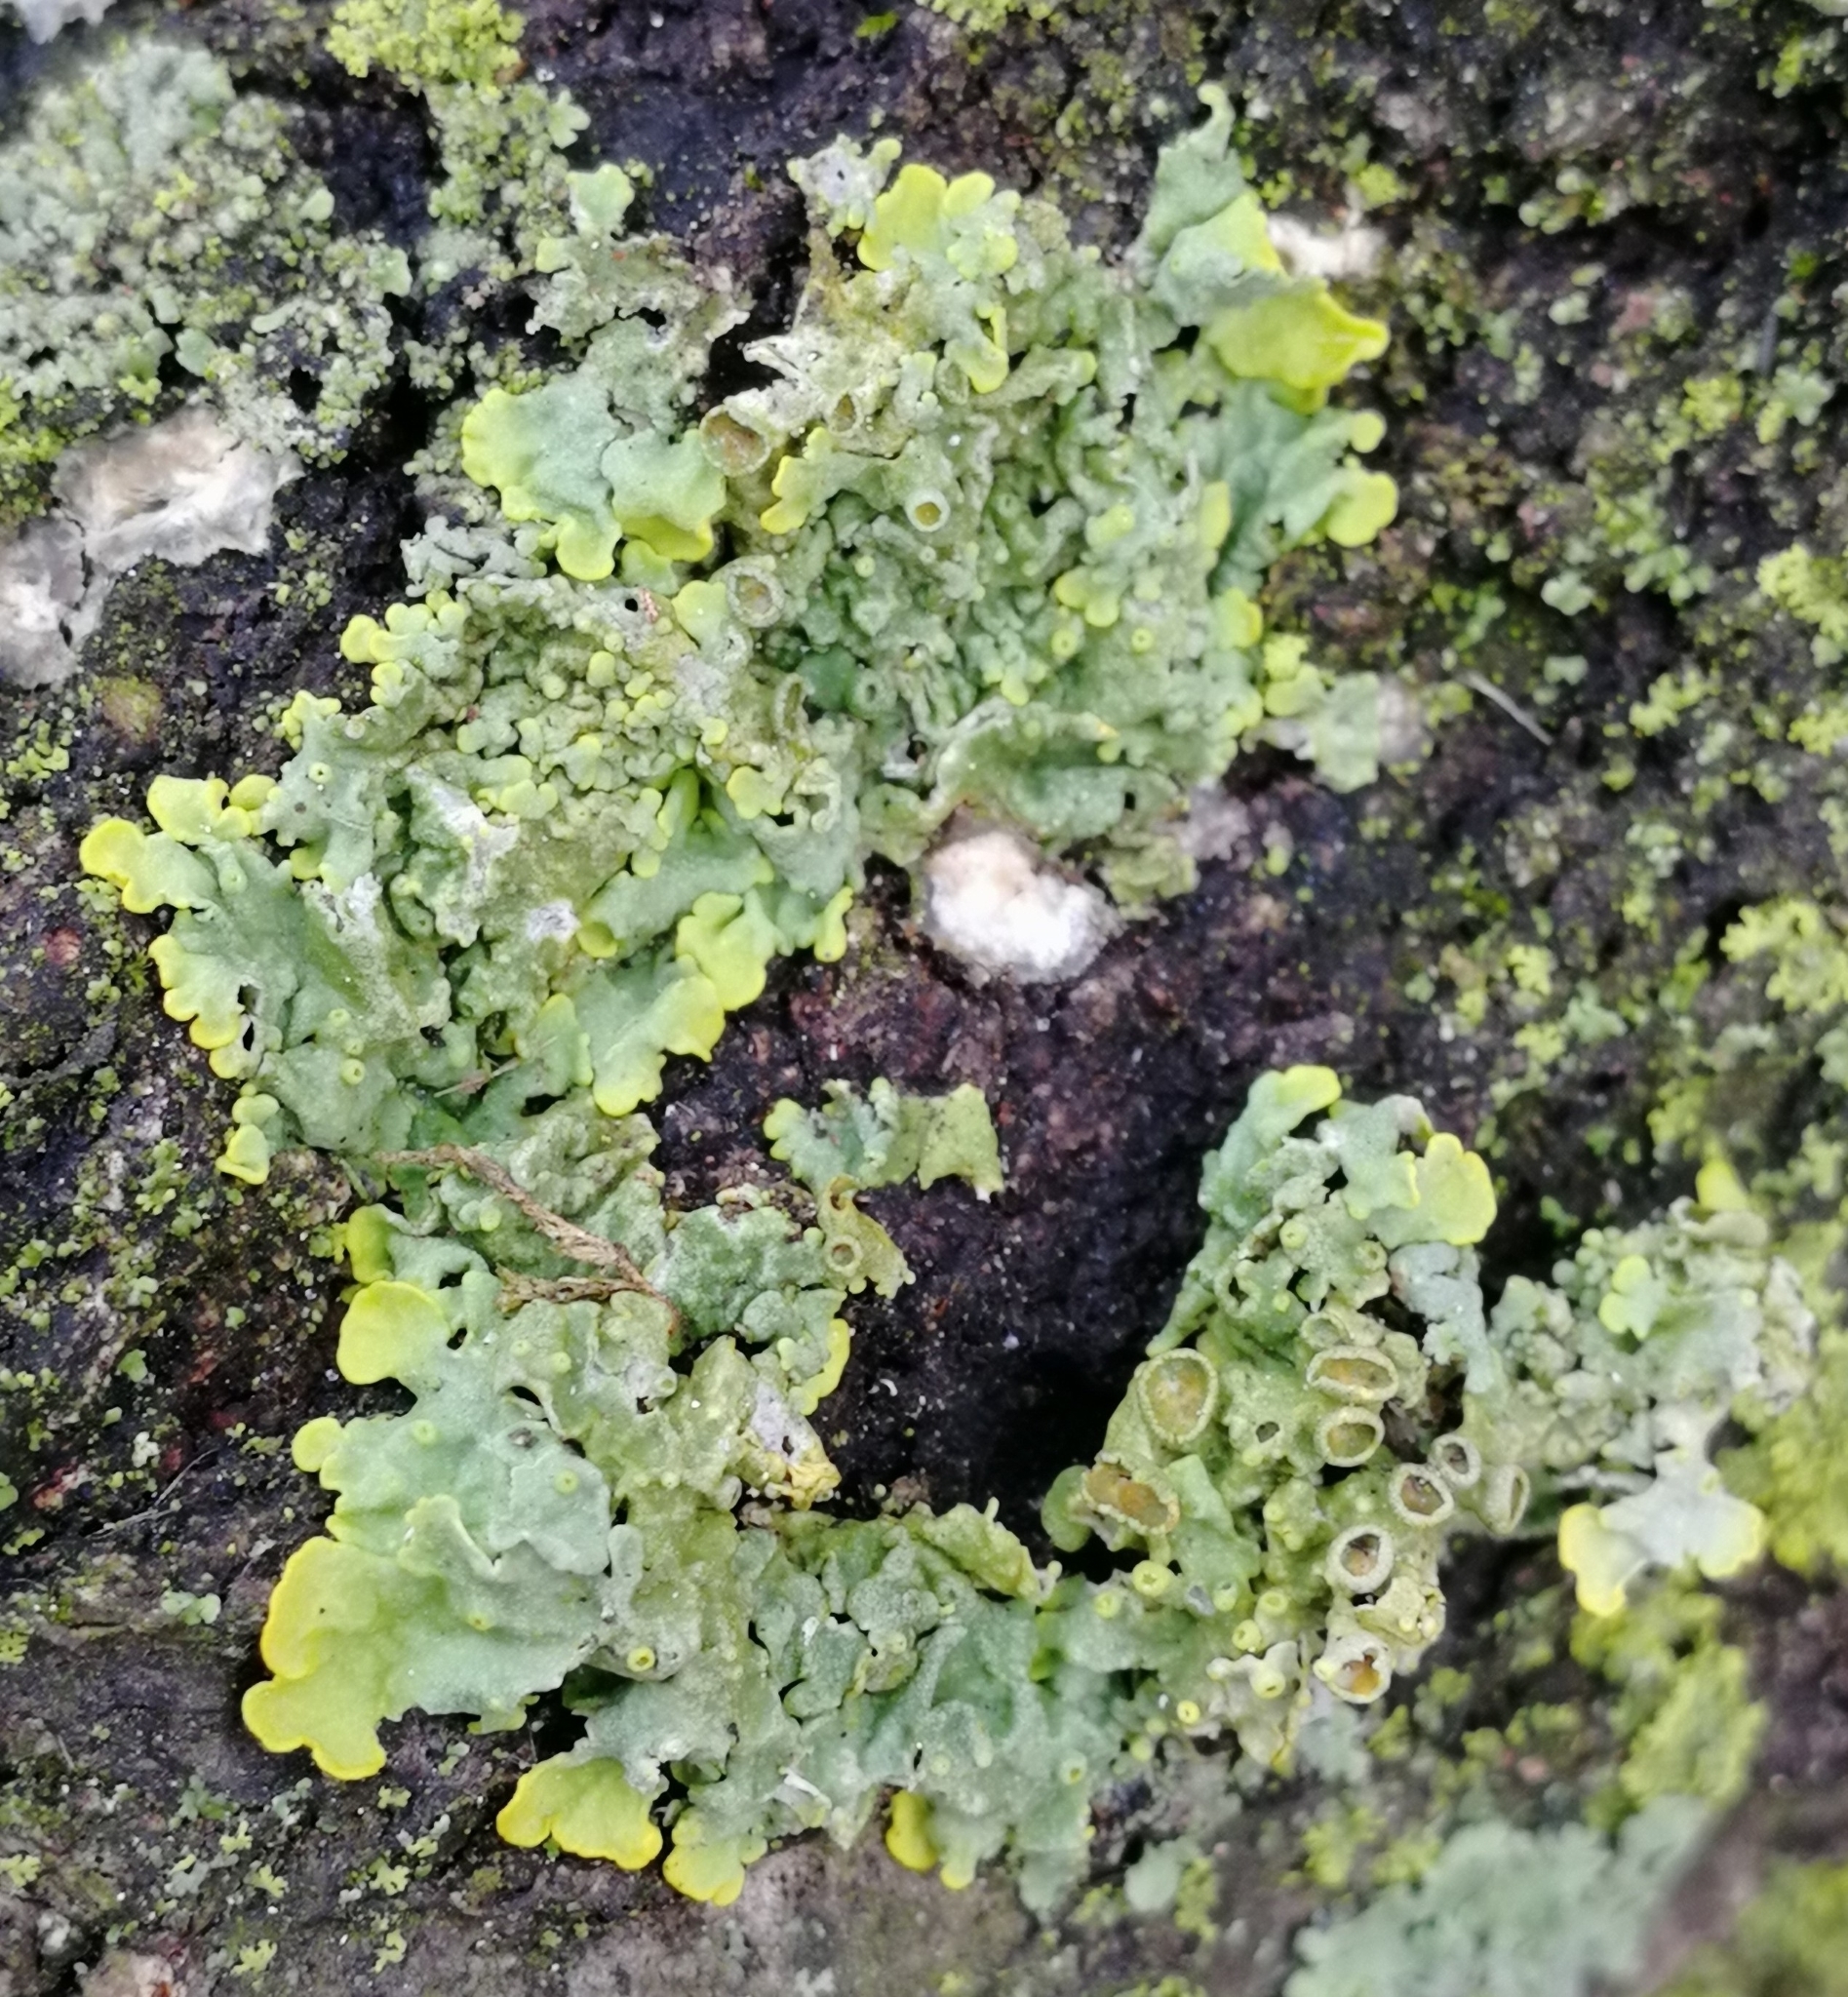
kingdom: Fungi
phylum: Ascomycota
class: Lecanoromycetes
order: Teloschistales
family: Teloschistaceae
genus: Xanthoria
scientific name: Xanthoria parietina
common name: Common orange lichen
